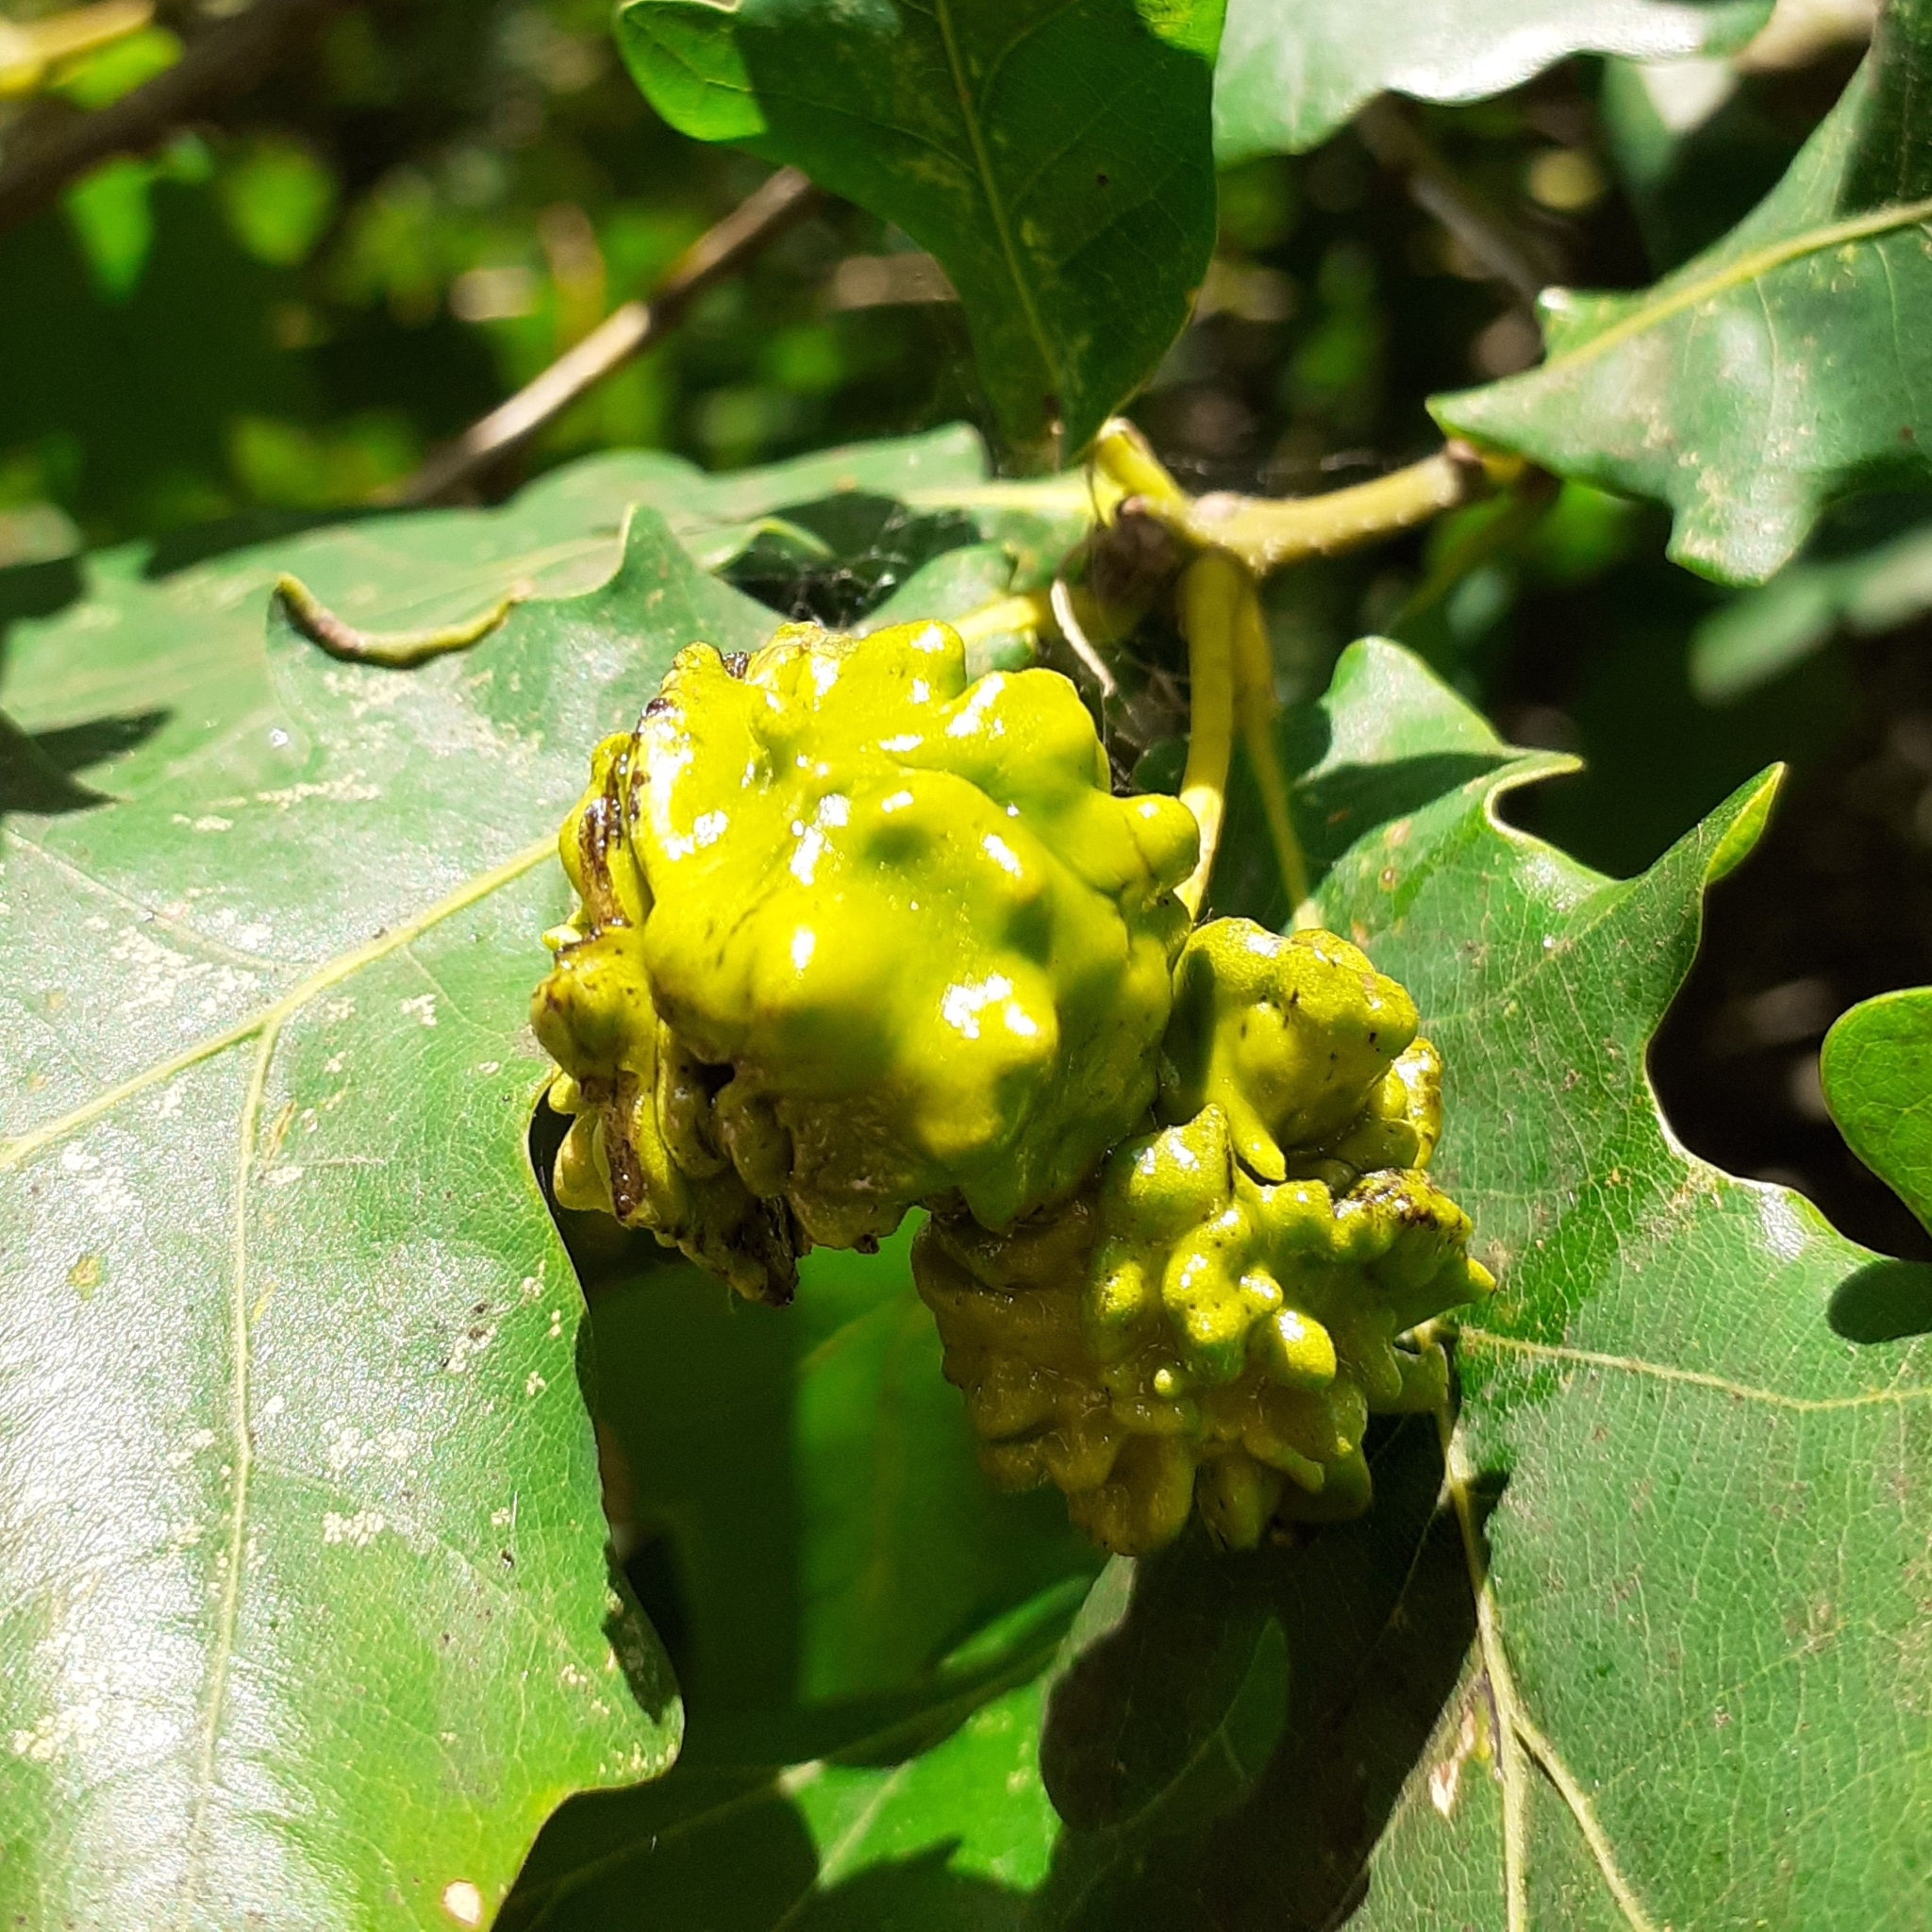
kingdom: Animalia
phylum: Arthropoda
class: Insecta
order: Hymenoptera
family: Cynipidae
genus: Andricus
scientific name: Andricus quercuscalicis
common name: Knopper gall
